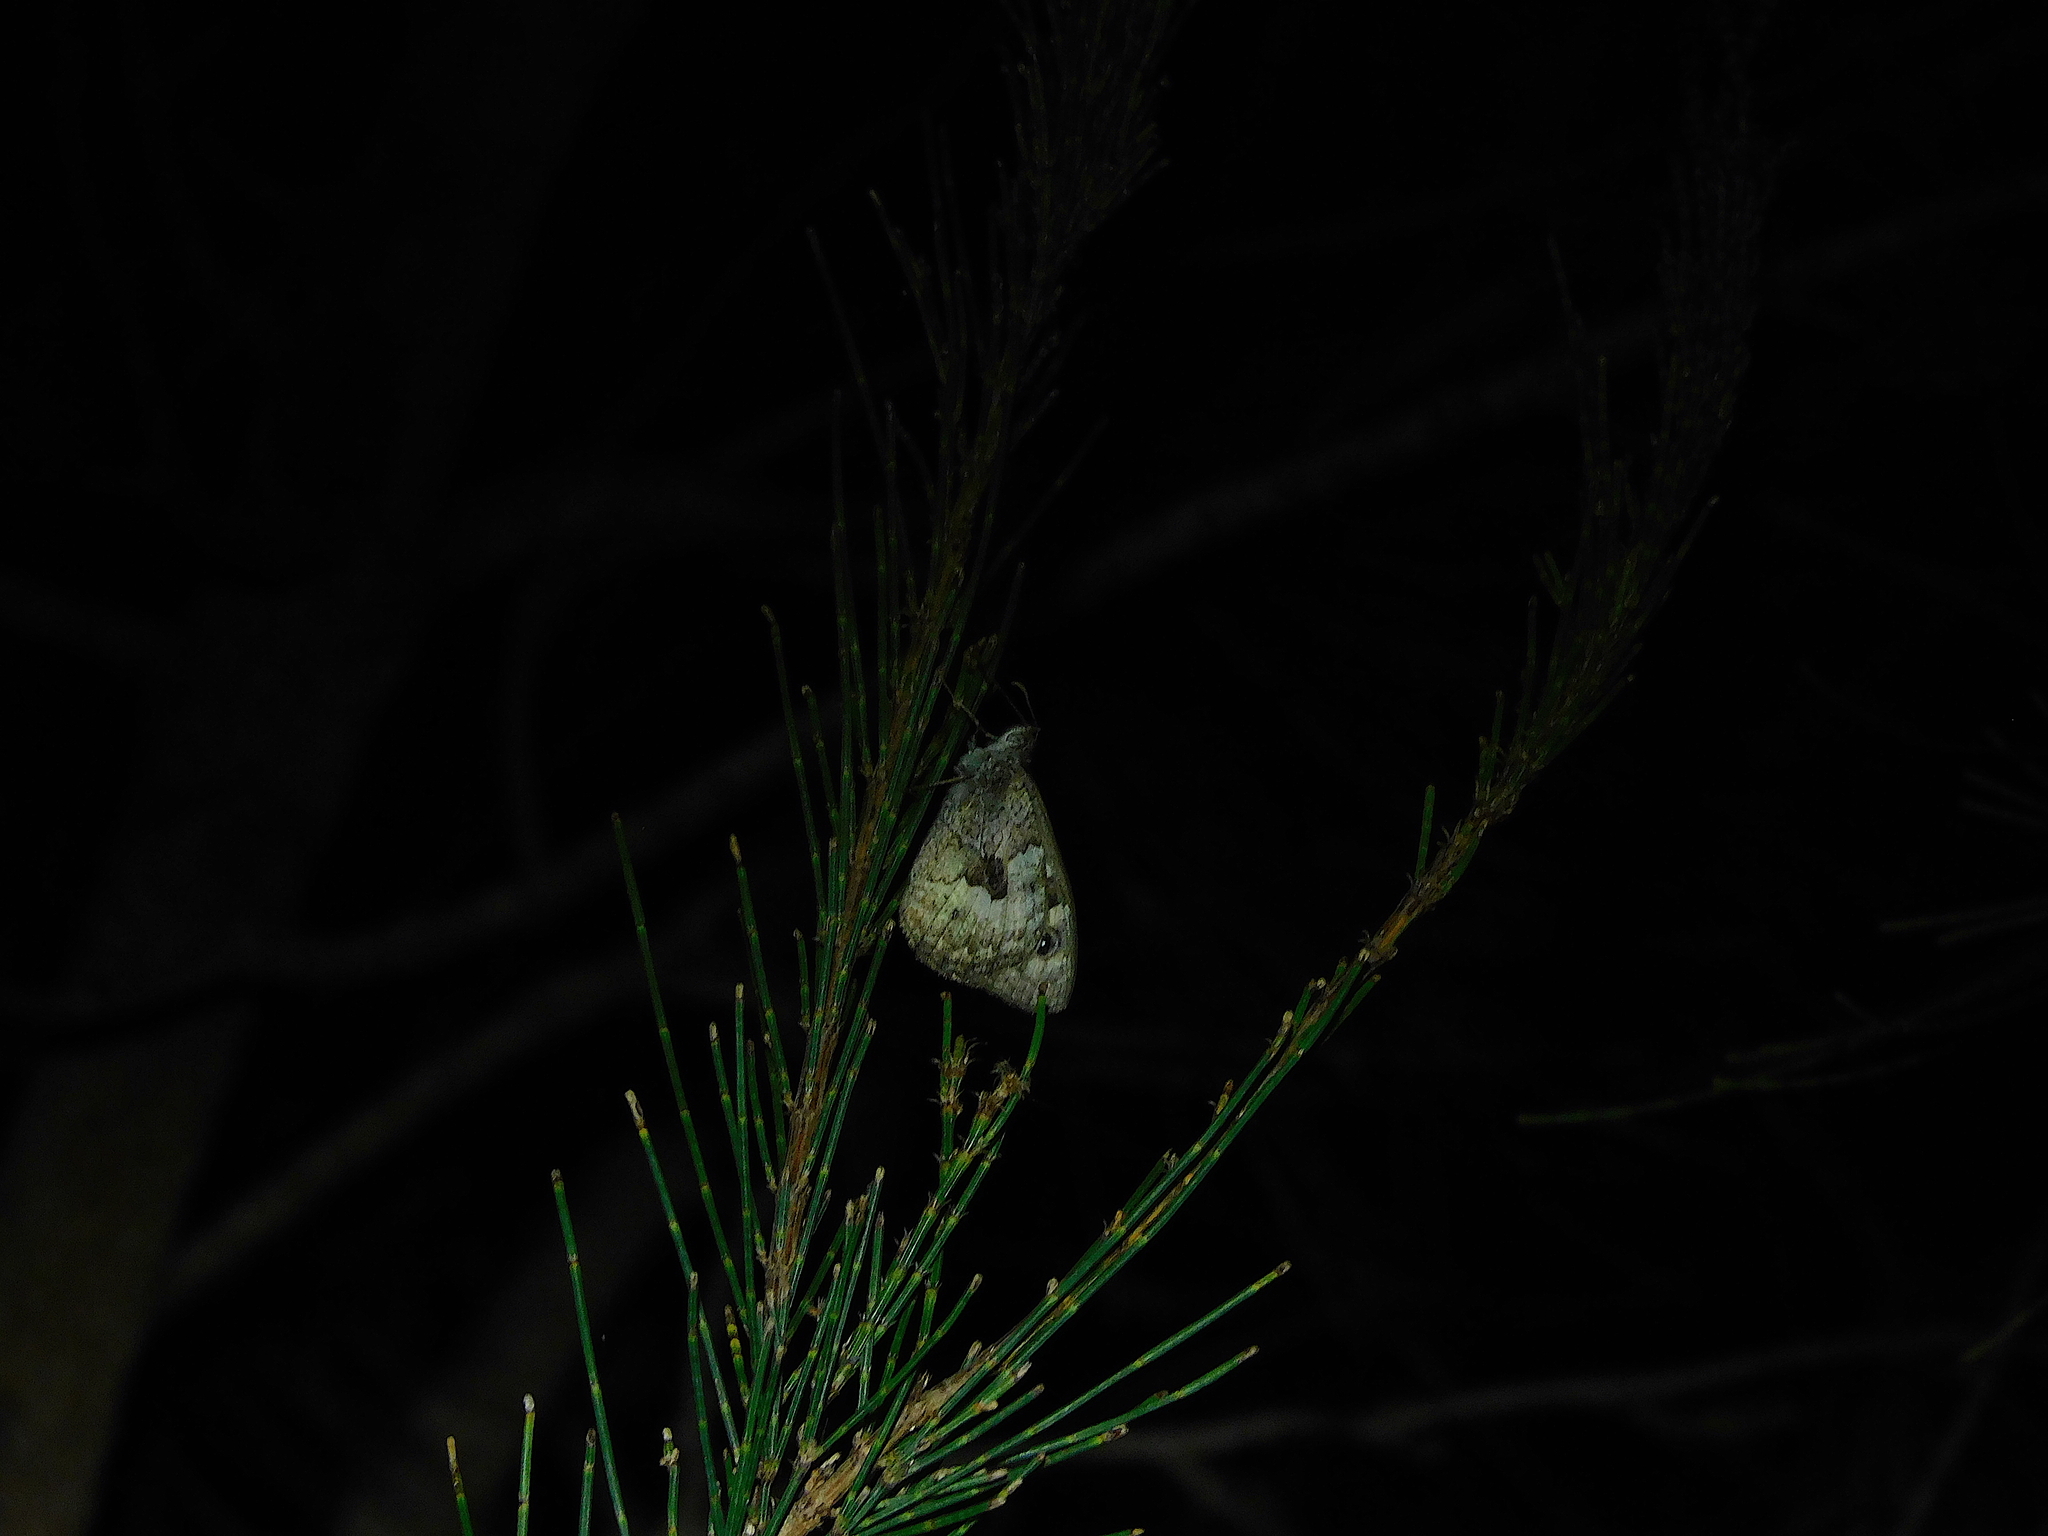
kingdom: Animalia
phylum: Arthropoda
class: Insecta
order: Lepidoptera
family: Nymphalidae
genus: Geitoneura
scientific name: Geitoneura klugii
